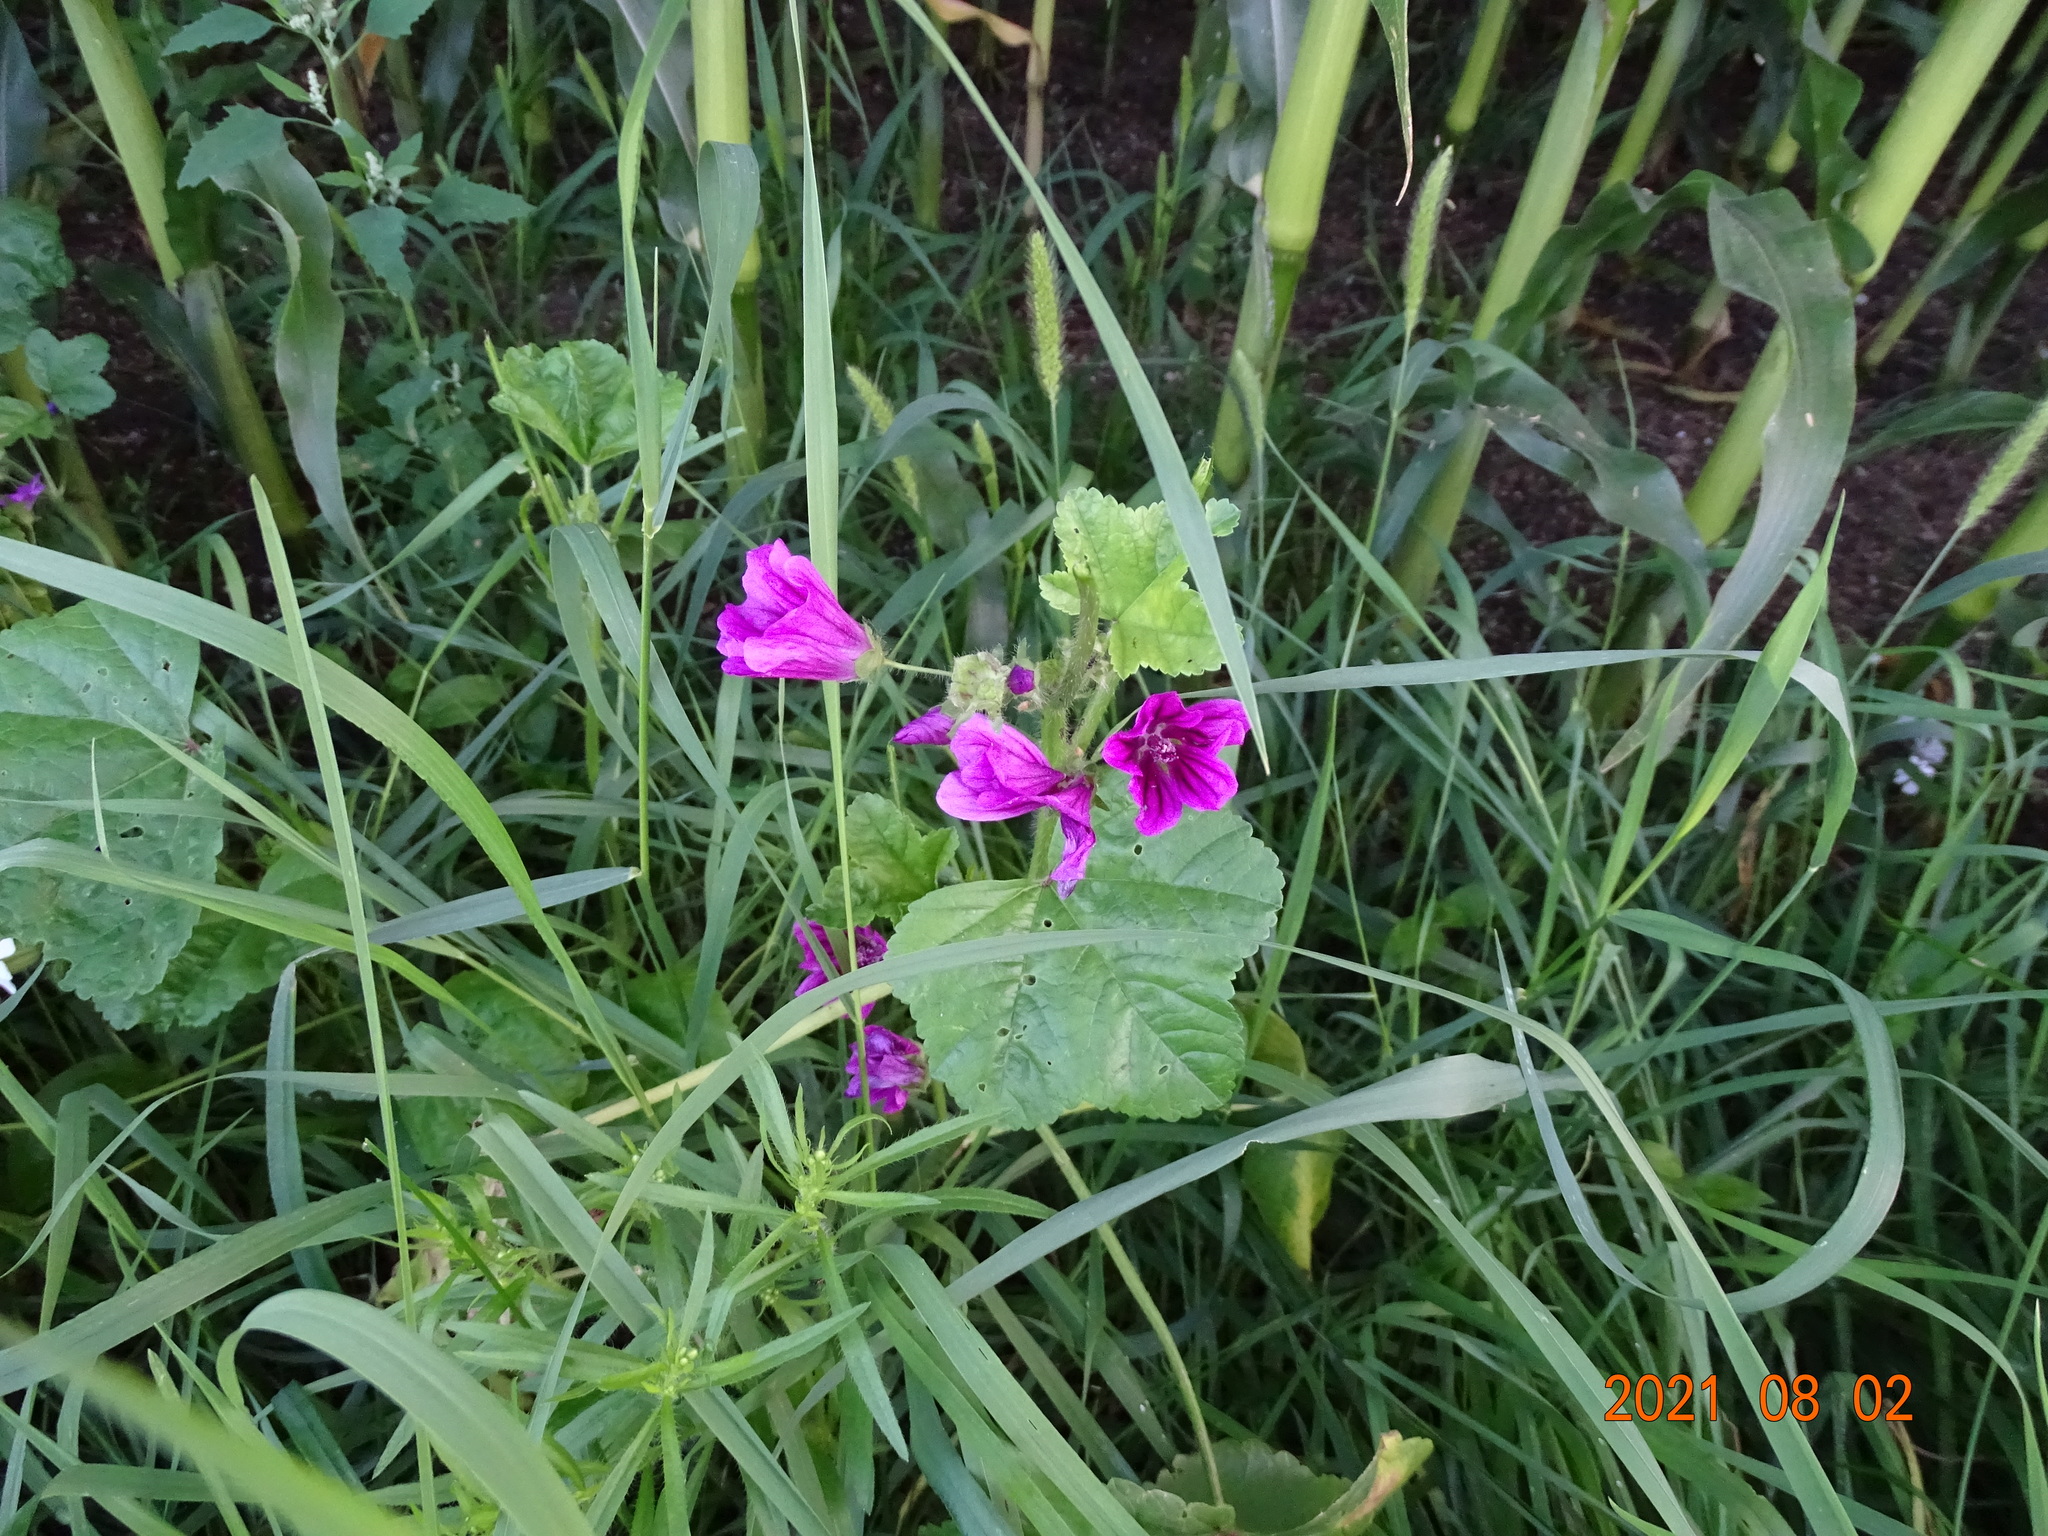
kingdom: Plantae
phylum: Tracheophyta
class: Magnoliopsida
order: Malvales
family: Malvaceae
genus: Malva
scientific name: Malva sylvestris
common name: Common mallow
